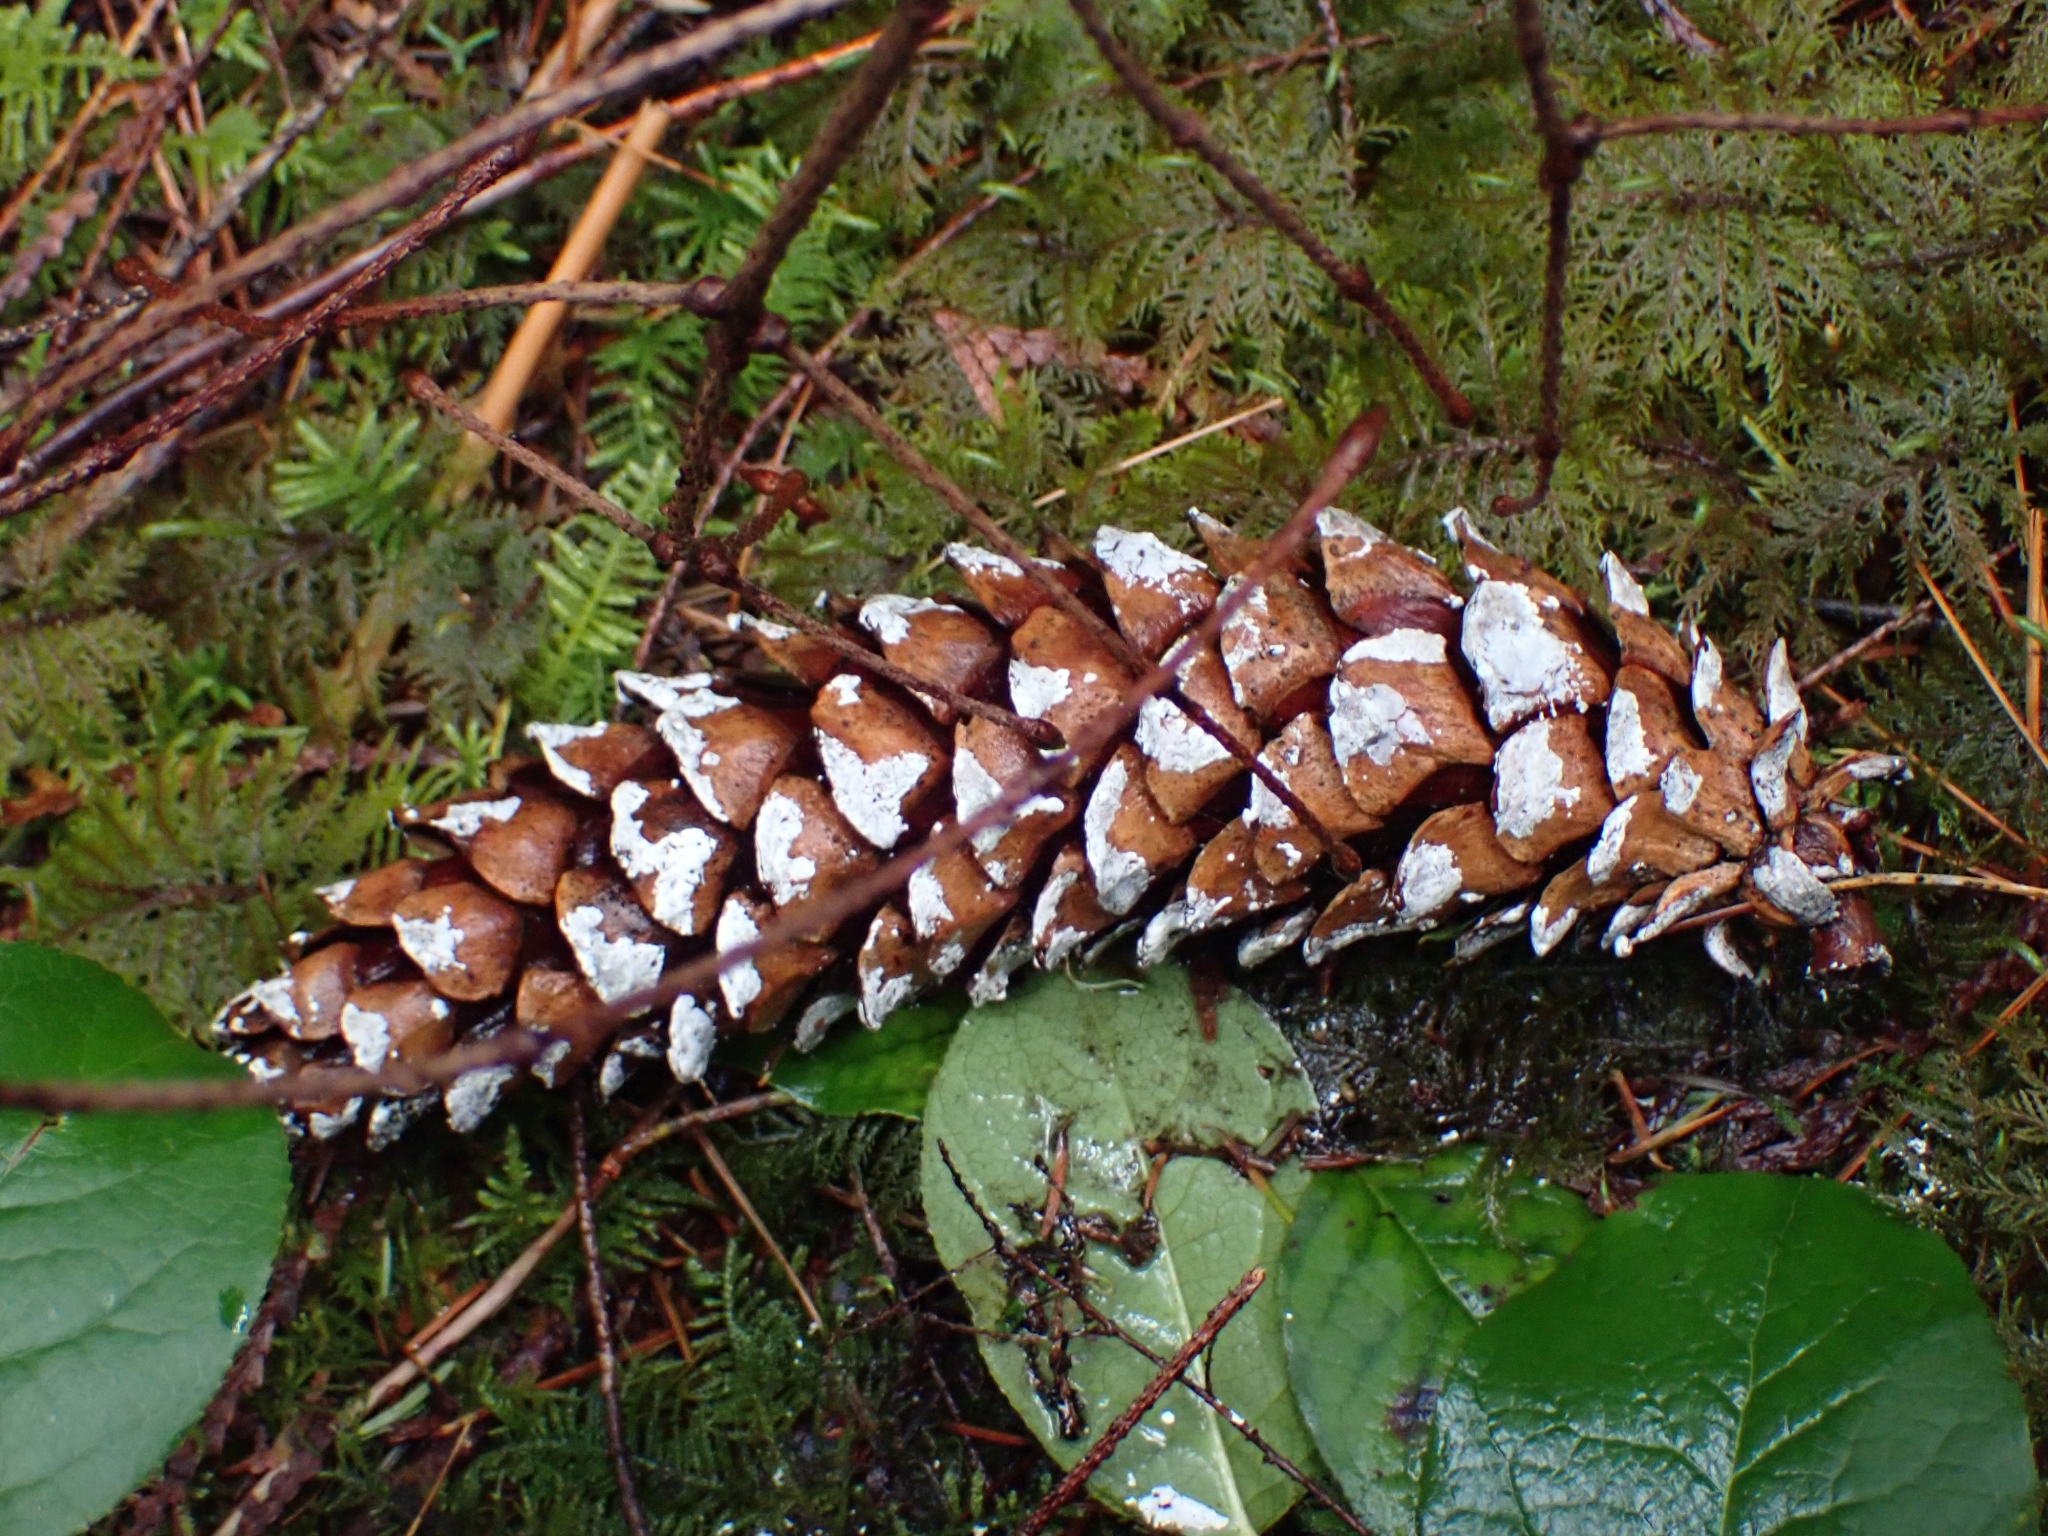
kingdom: Plantae
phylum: Tracheophyta
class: Pinopsida
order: Pinales
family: Pinaceae
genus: Pinus
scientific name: Pinus monticola
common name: Western white pine
